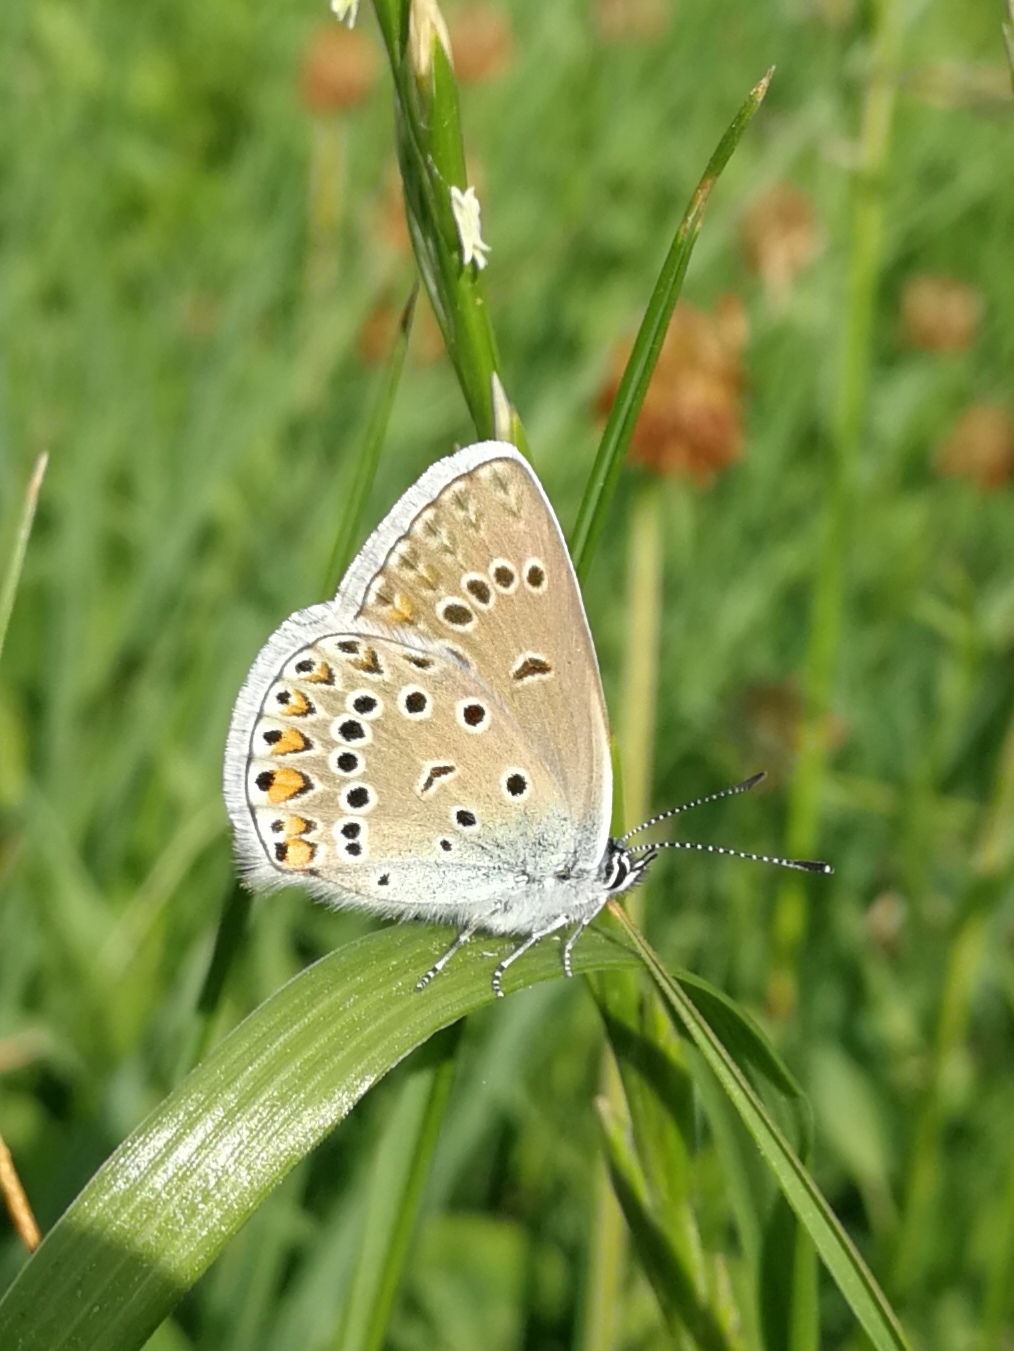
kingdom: Animalia
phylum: Arthropoda
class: Insecta
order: Lepidoptera
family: Lycaenidae
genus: Plebejus
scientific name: Plebejus amanda
